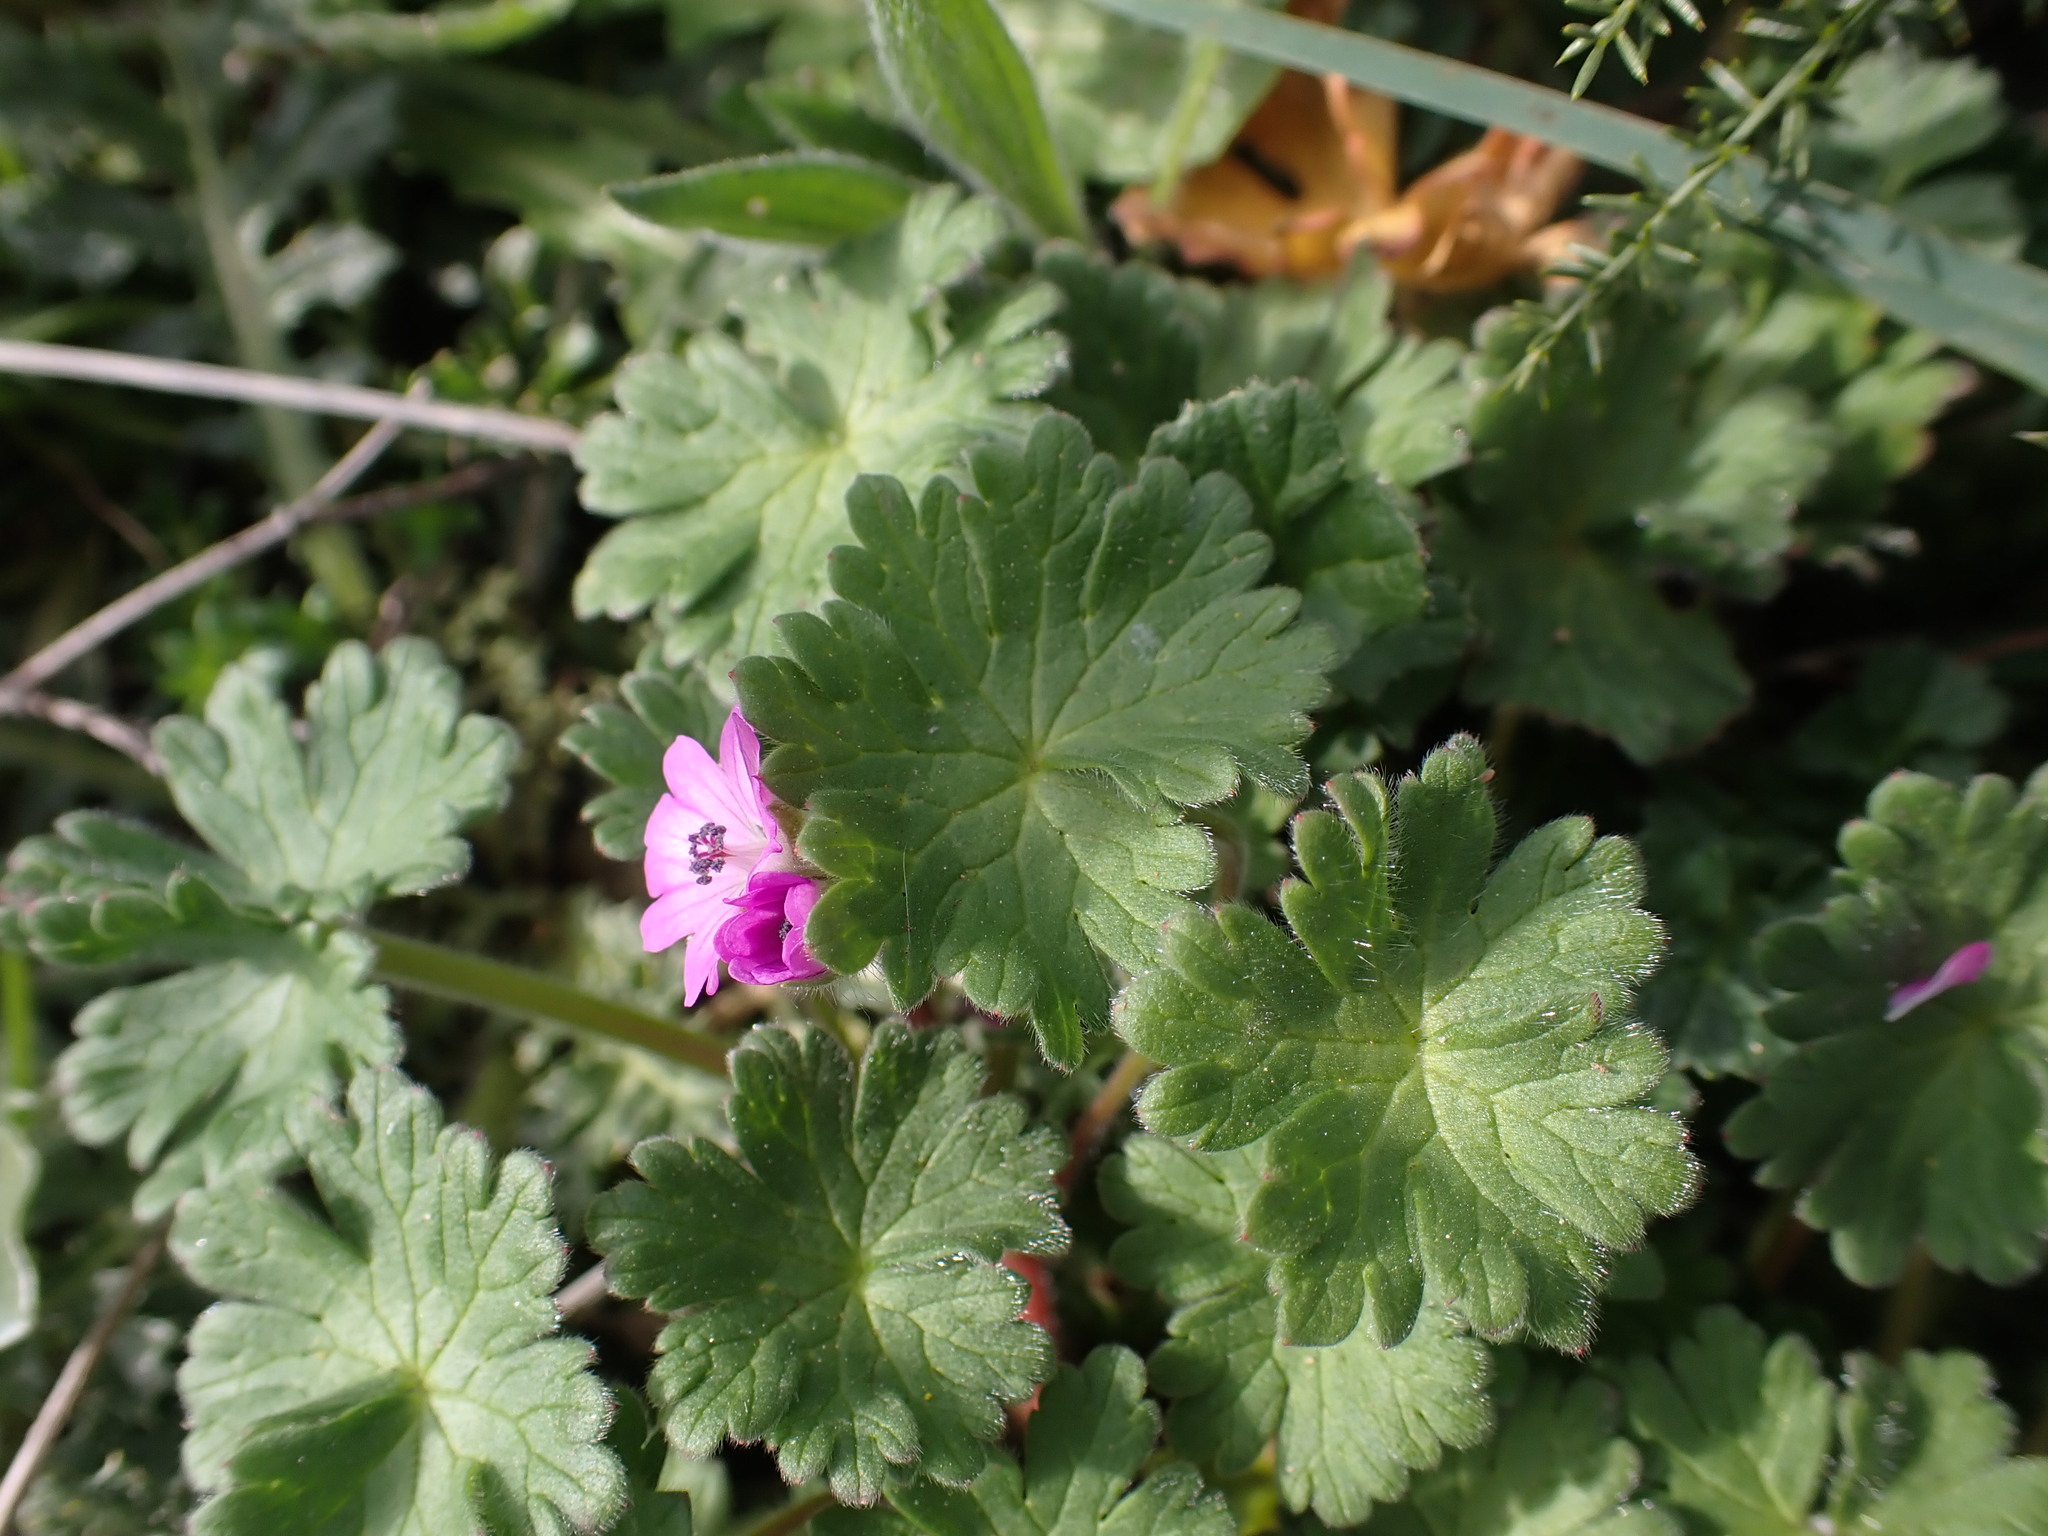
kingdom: Plantae
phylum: Tracheophyta
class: Magnoliopsida
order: Geraniales
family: Geraniaceae
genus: Geranium
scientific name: Geranium molle
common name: Dove's-foot crane's-bill
